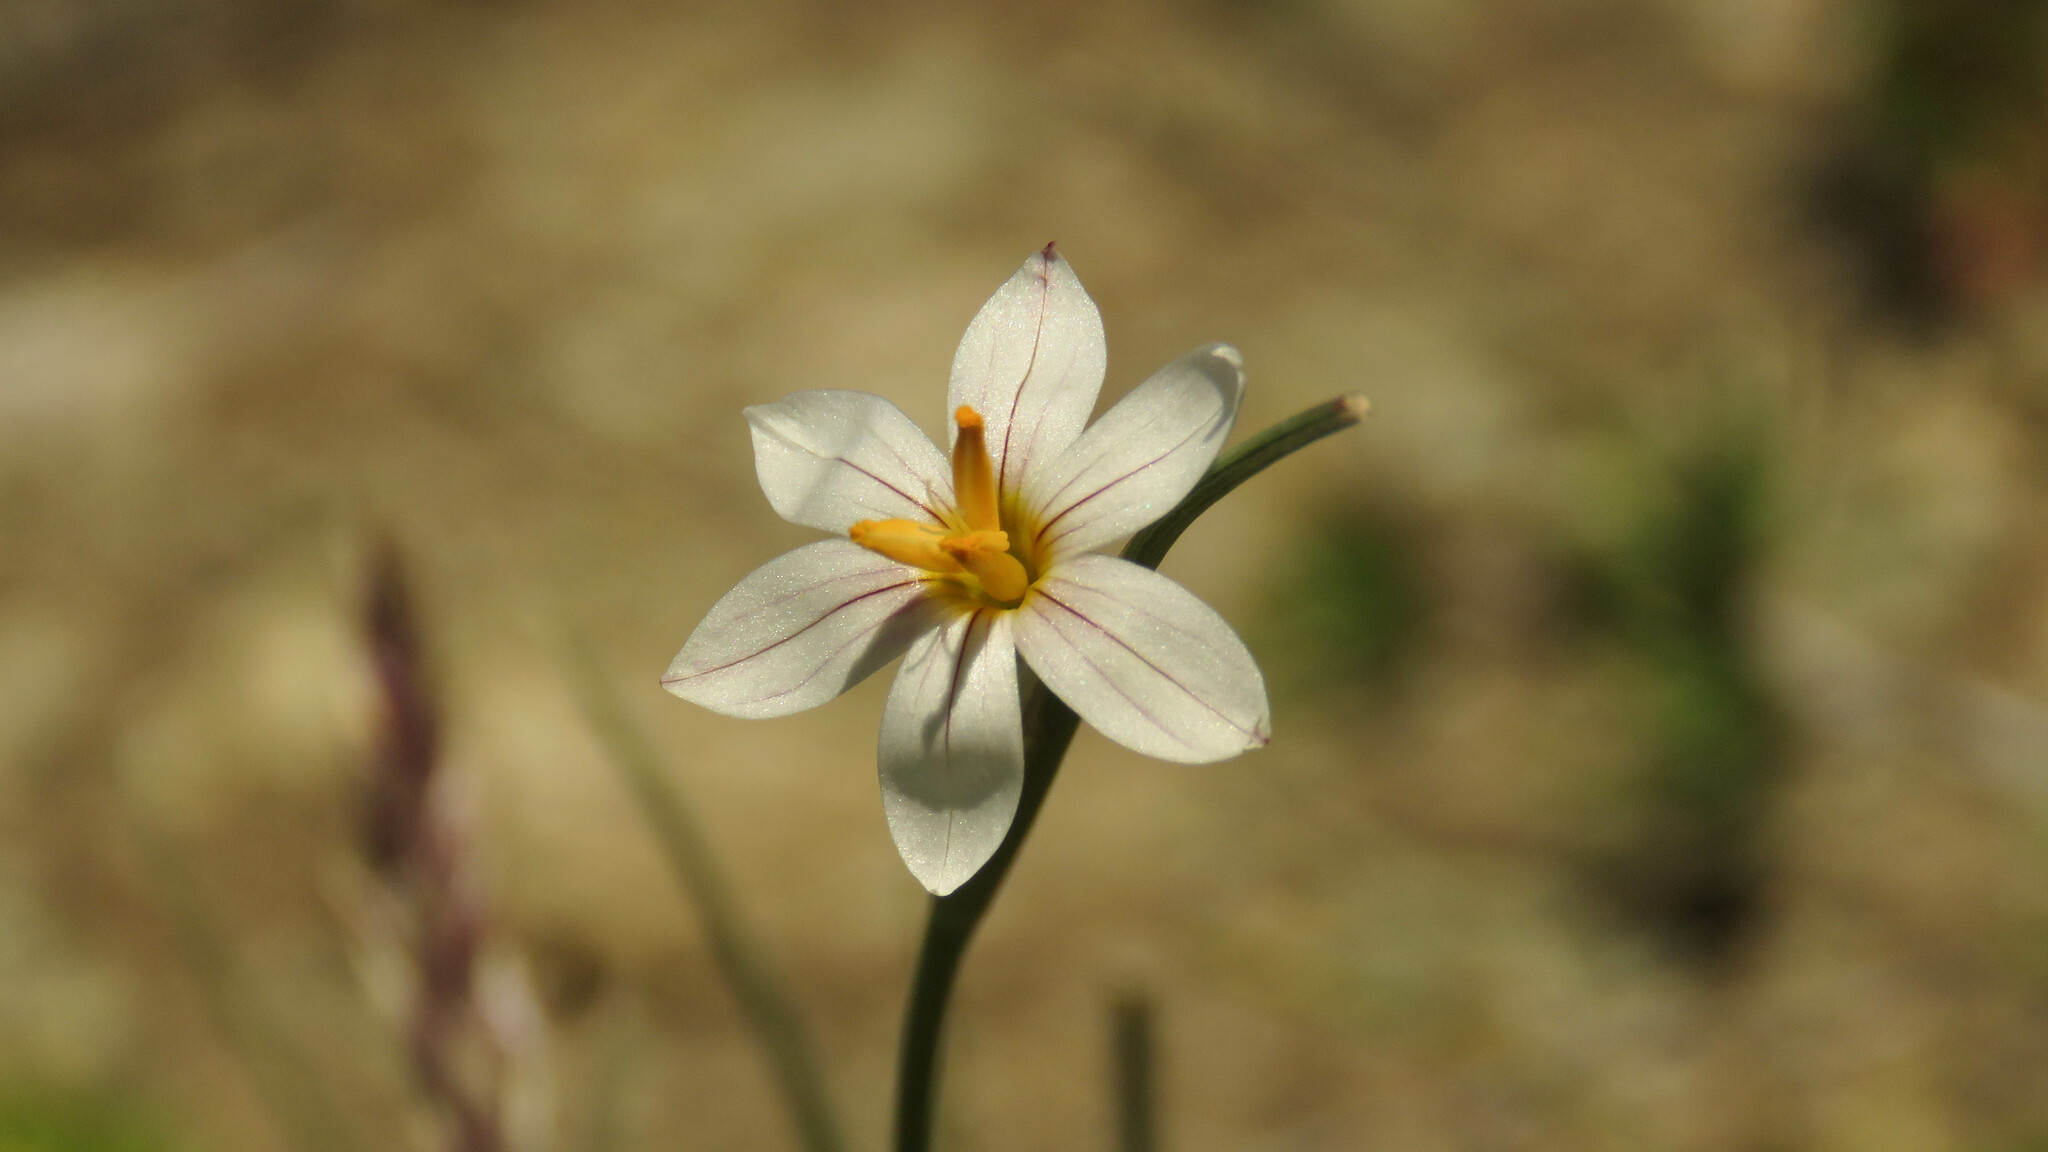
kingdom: Plantae
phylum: Tracheophyta
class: Liliopsida
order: Asparagales
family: Iridaceae
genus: Olsynium
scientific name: Olsynium junceum
